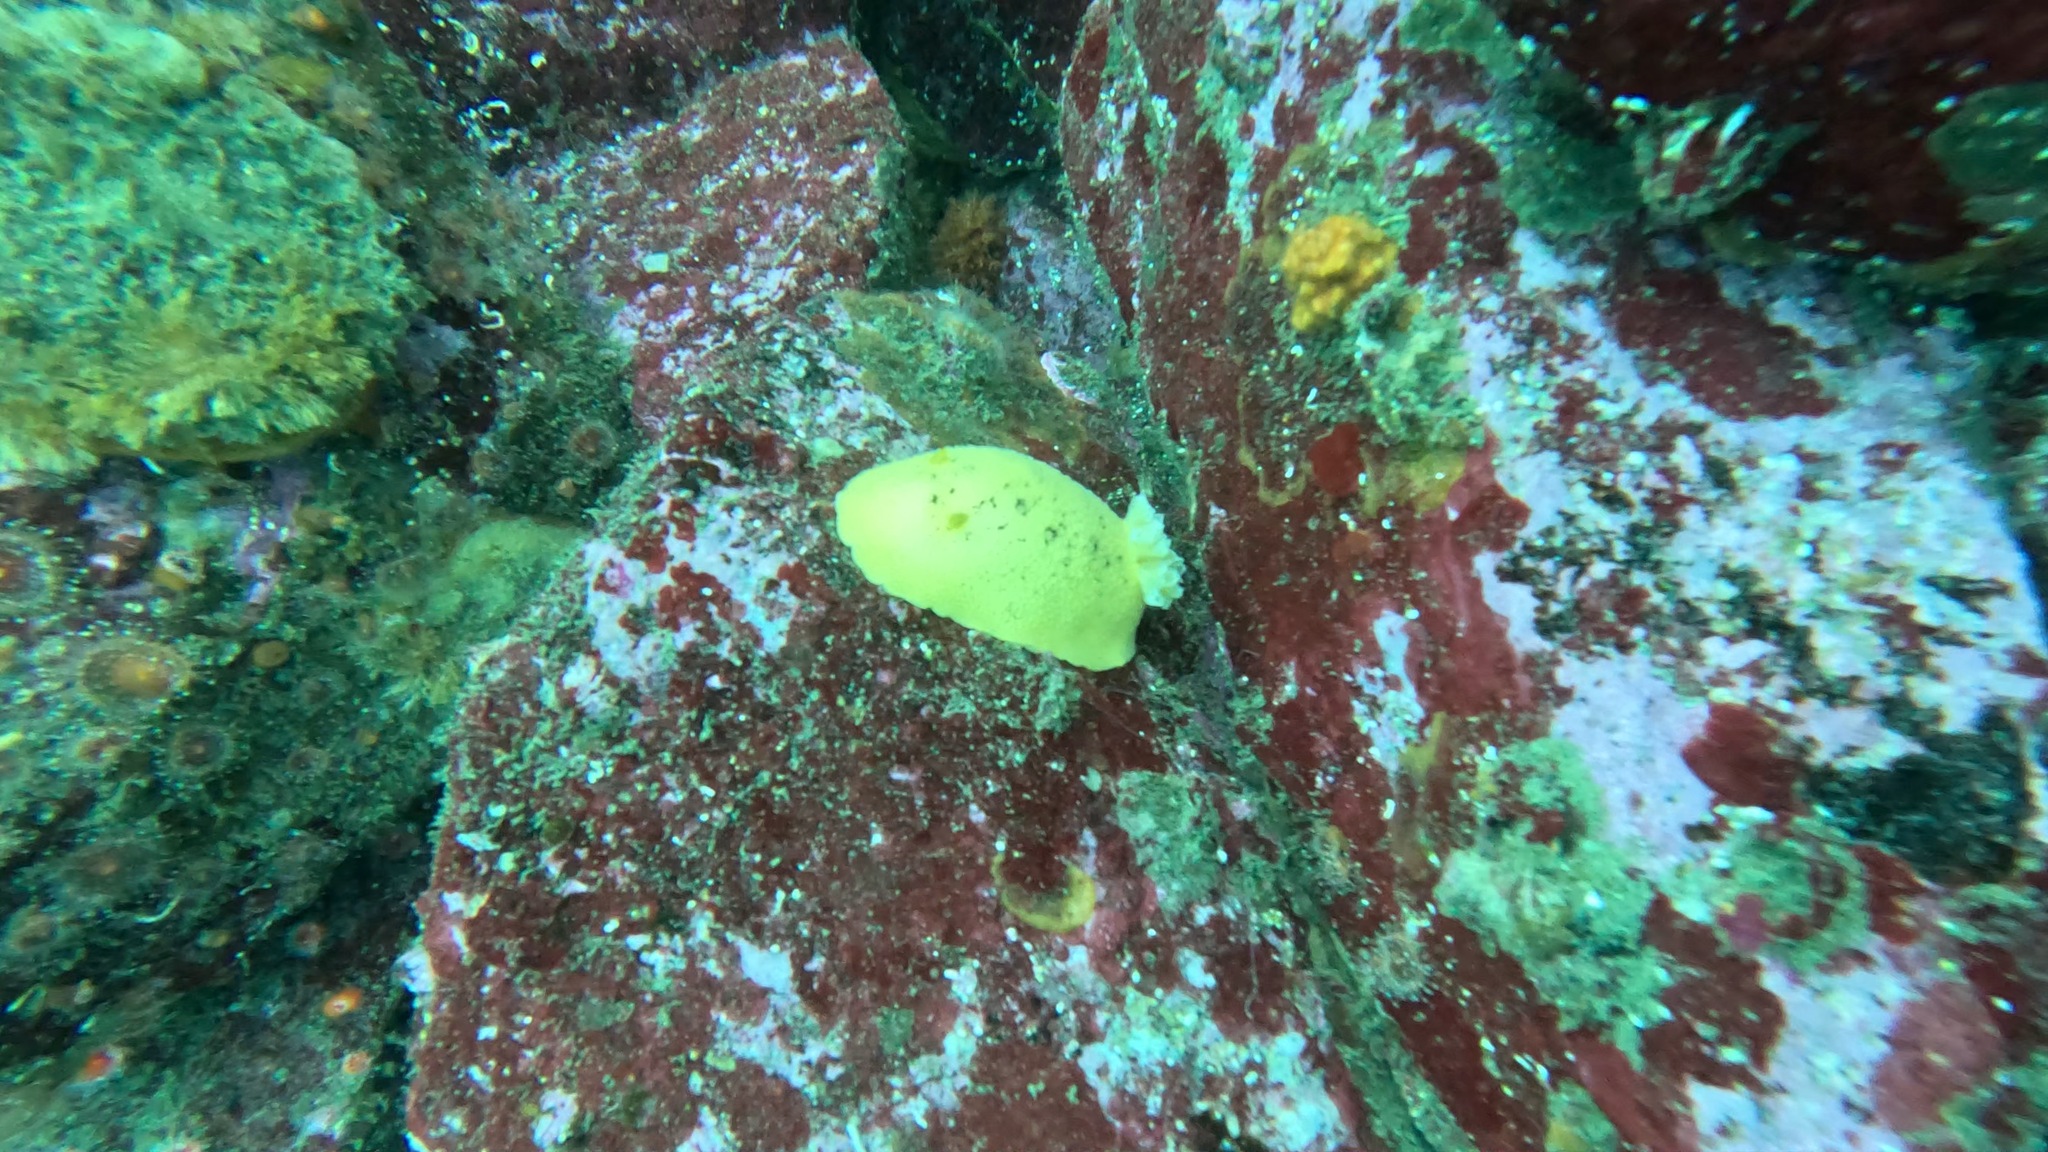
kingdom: Animalia
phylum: Mollusca
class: Gastropoda
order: Nudibranchia
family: Discodorididae
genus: Peltodoris
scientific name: Peltodoris nobilis
